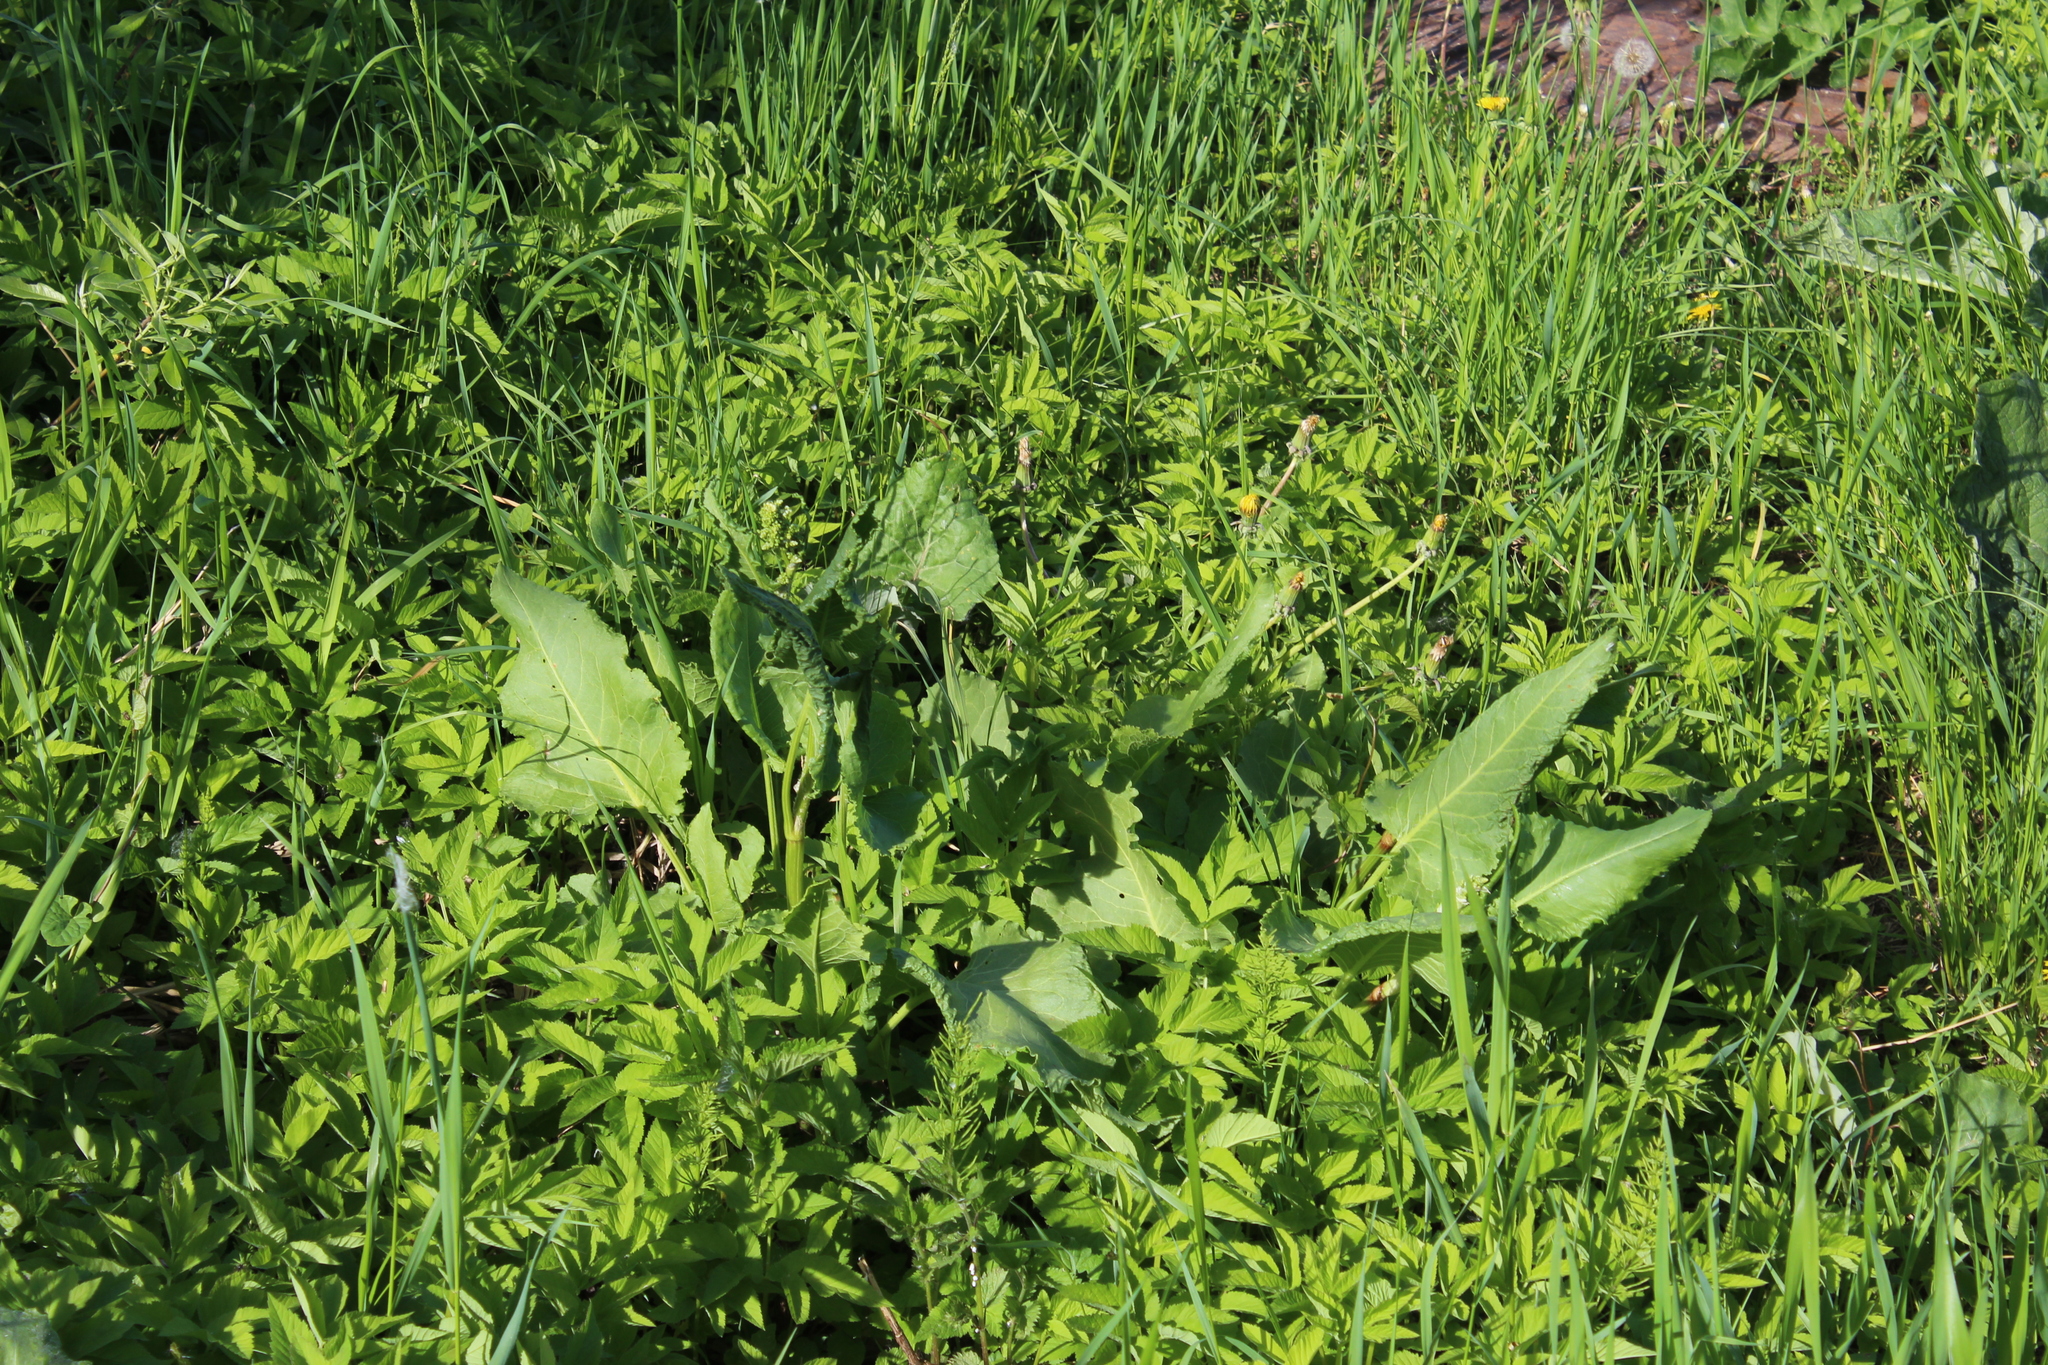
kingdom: Plantae
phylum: Tracheophyta
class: Magnoliopsida
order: Caryophyllales
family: Polygonaceae
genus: Rumex
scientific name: Rumex confertus
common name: Russian dock
